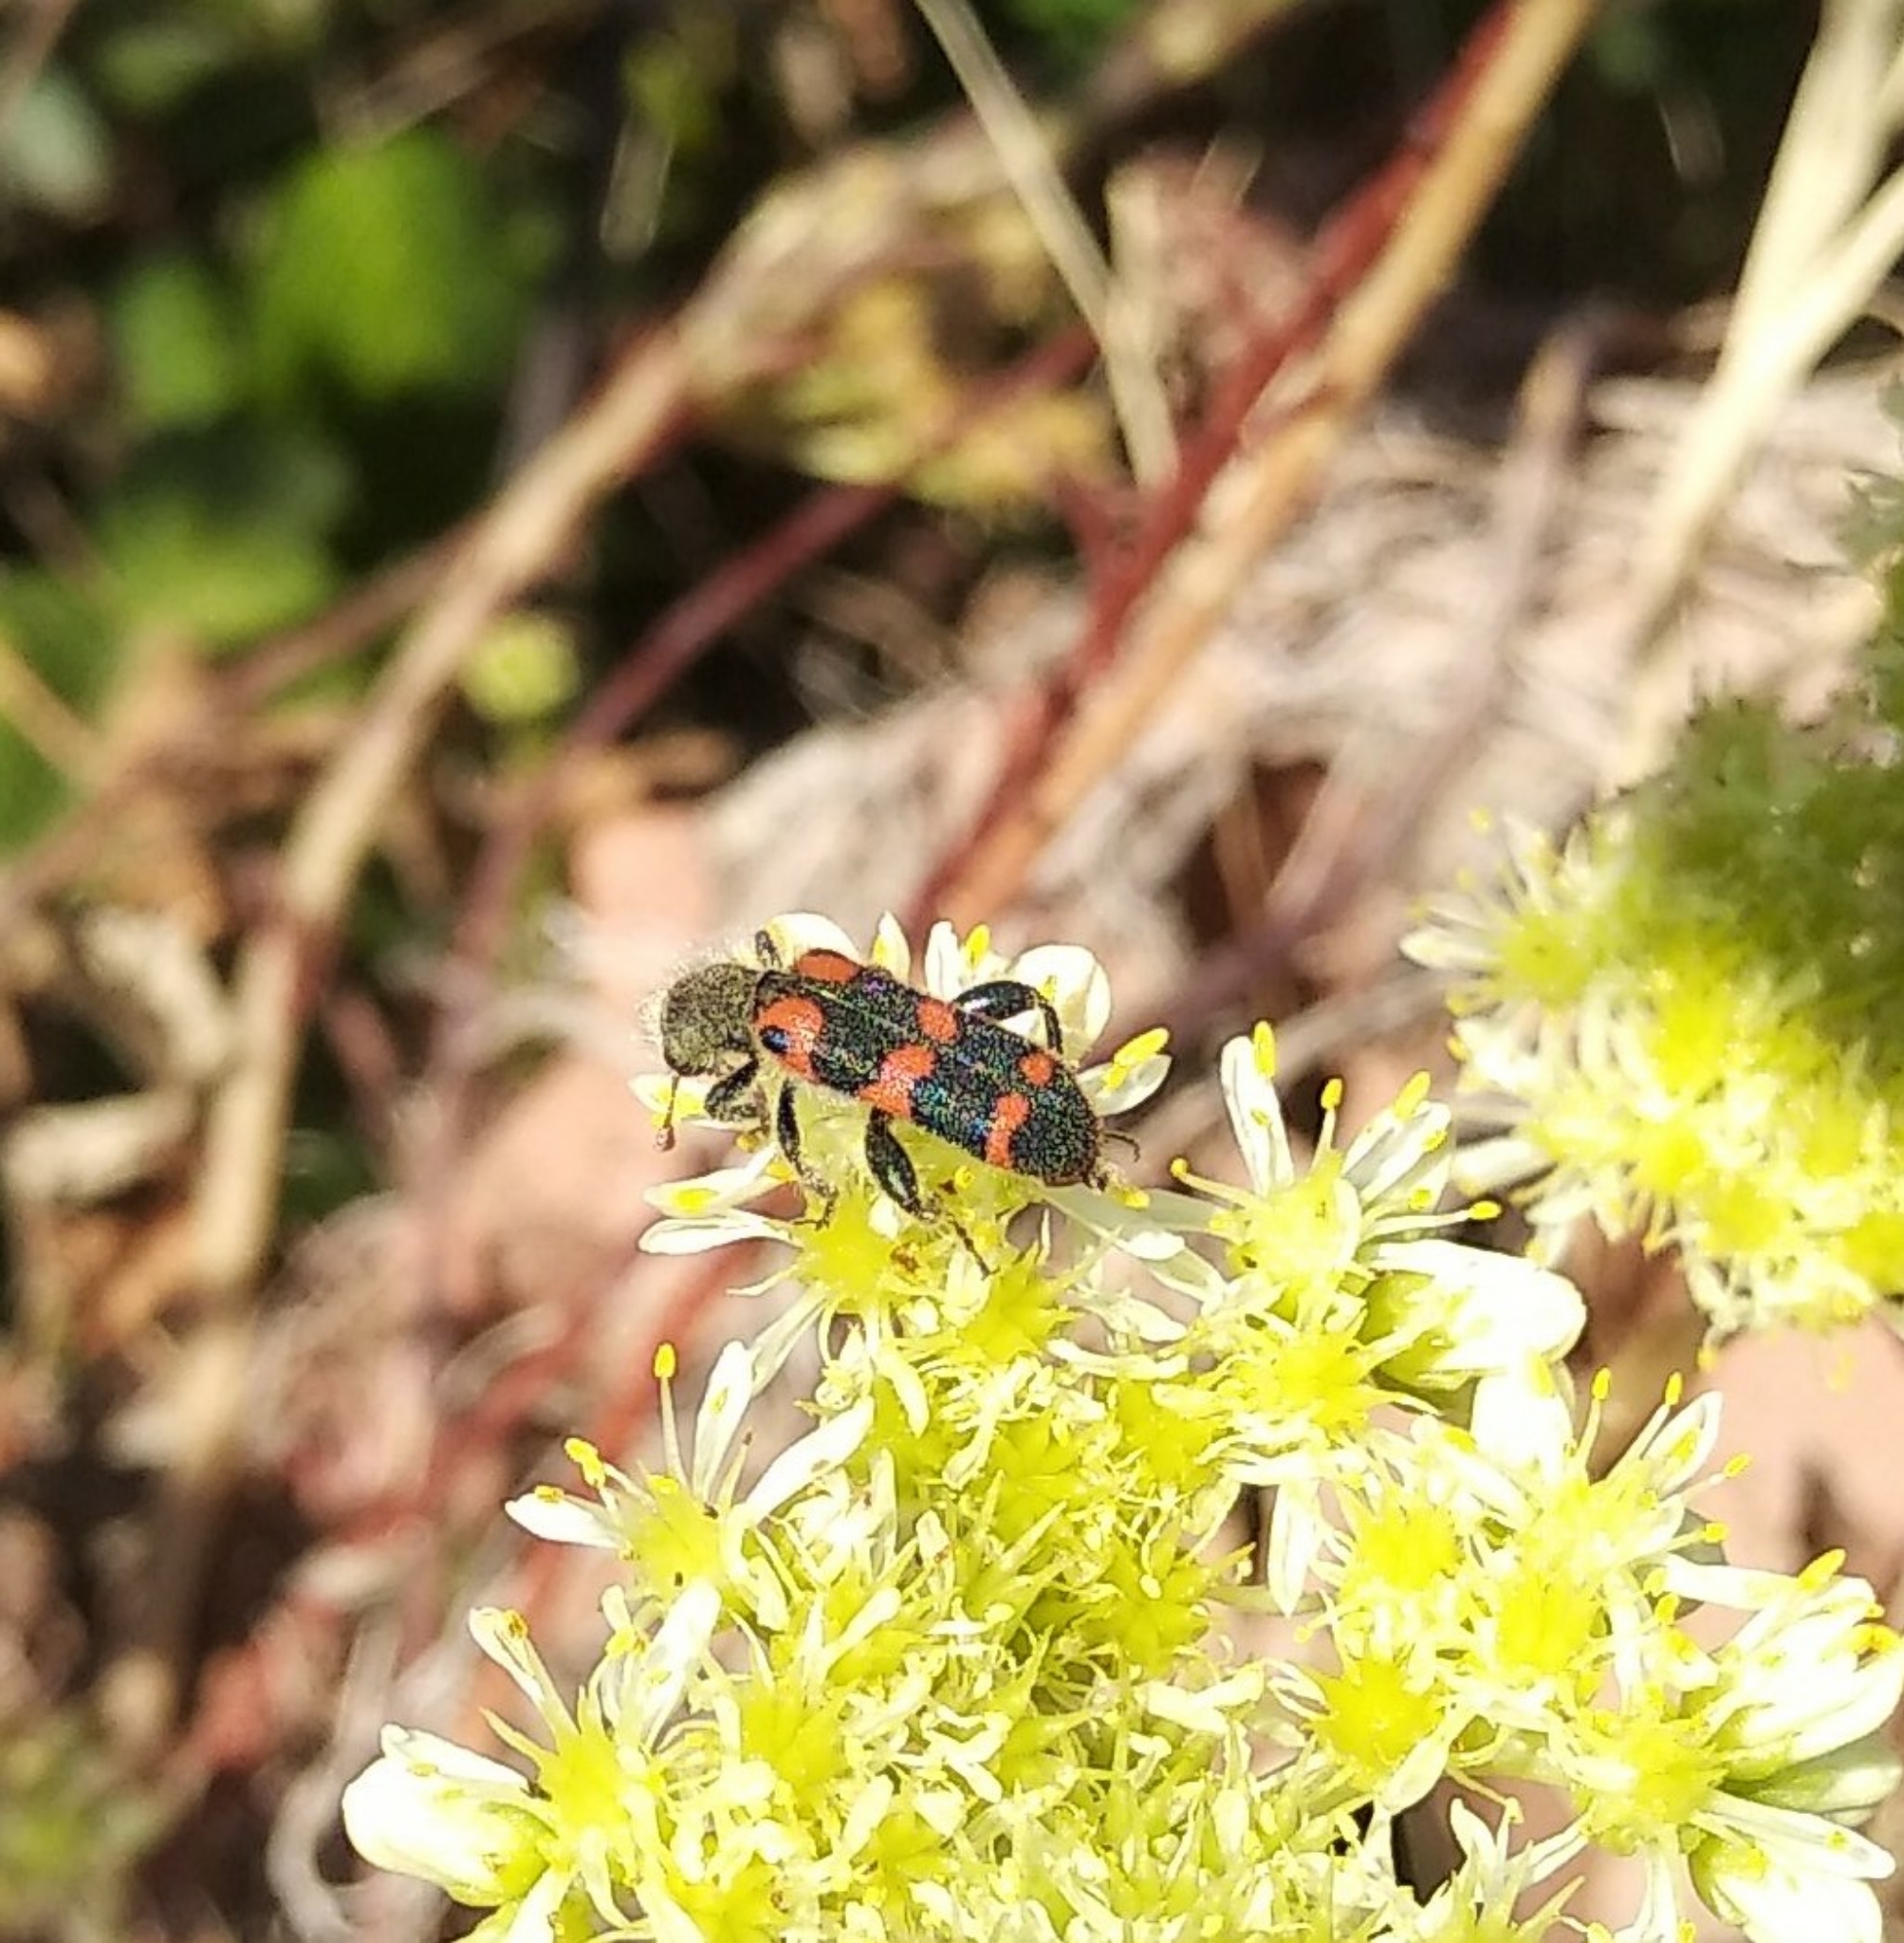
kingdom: Animalia
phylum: Arthropoda
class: Insecta
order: Coleoptera
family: Cleridae
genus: Trichodes
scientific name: Trichodes leucopsideus
